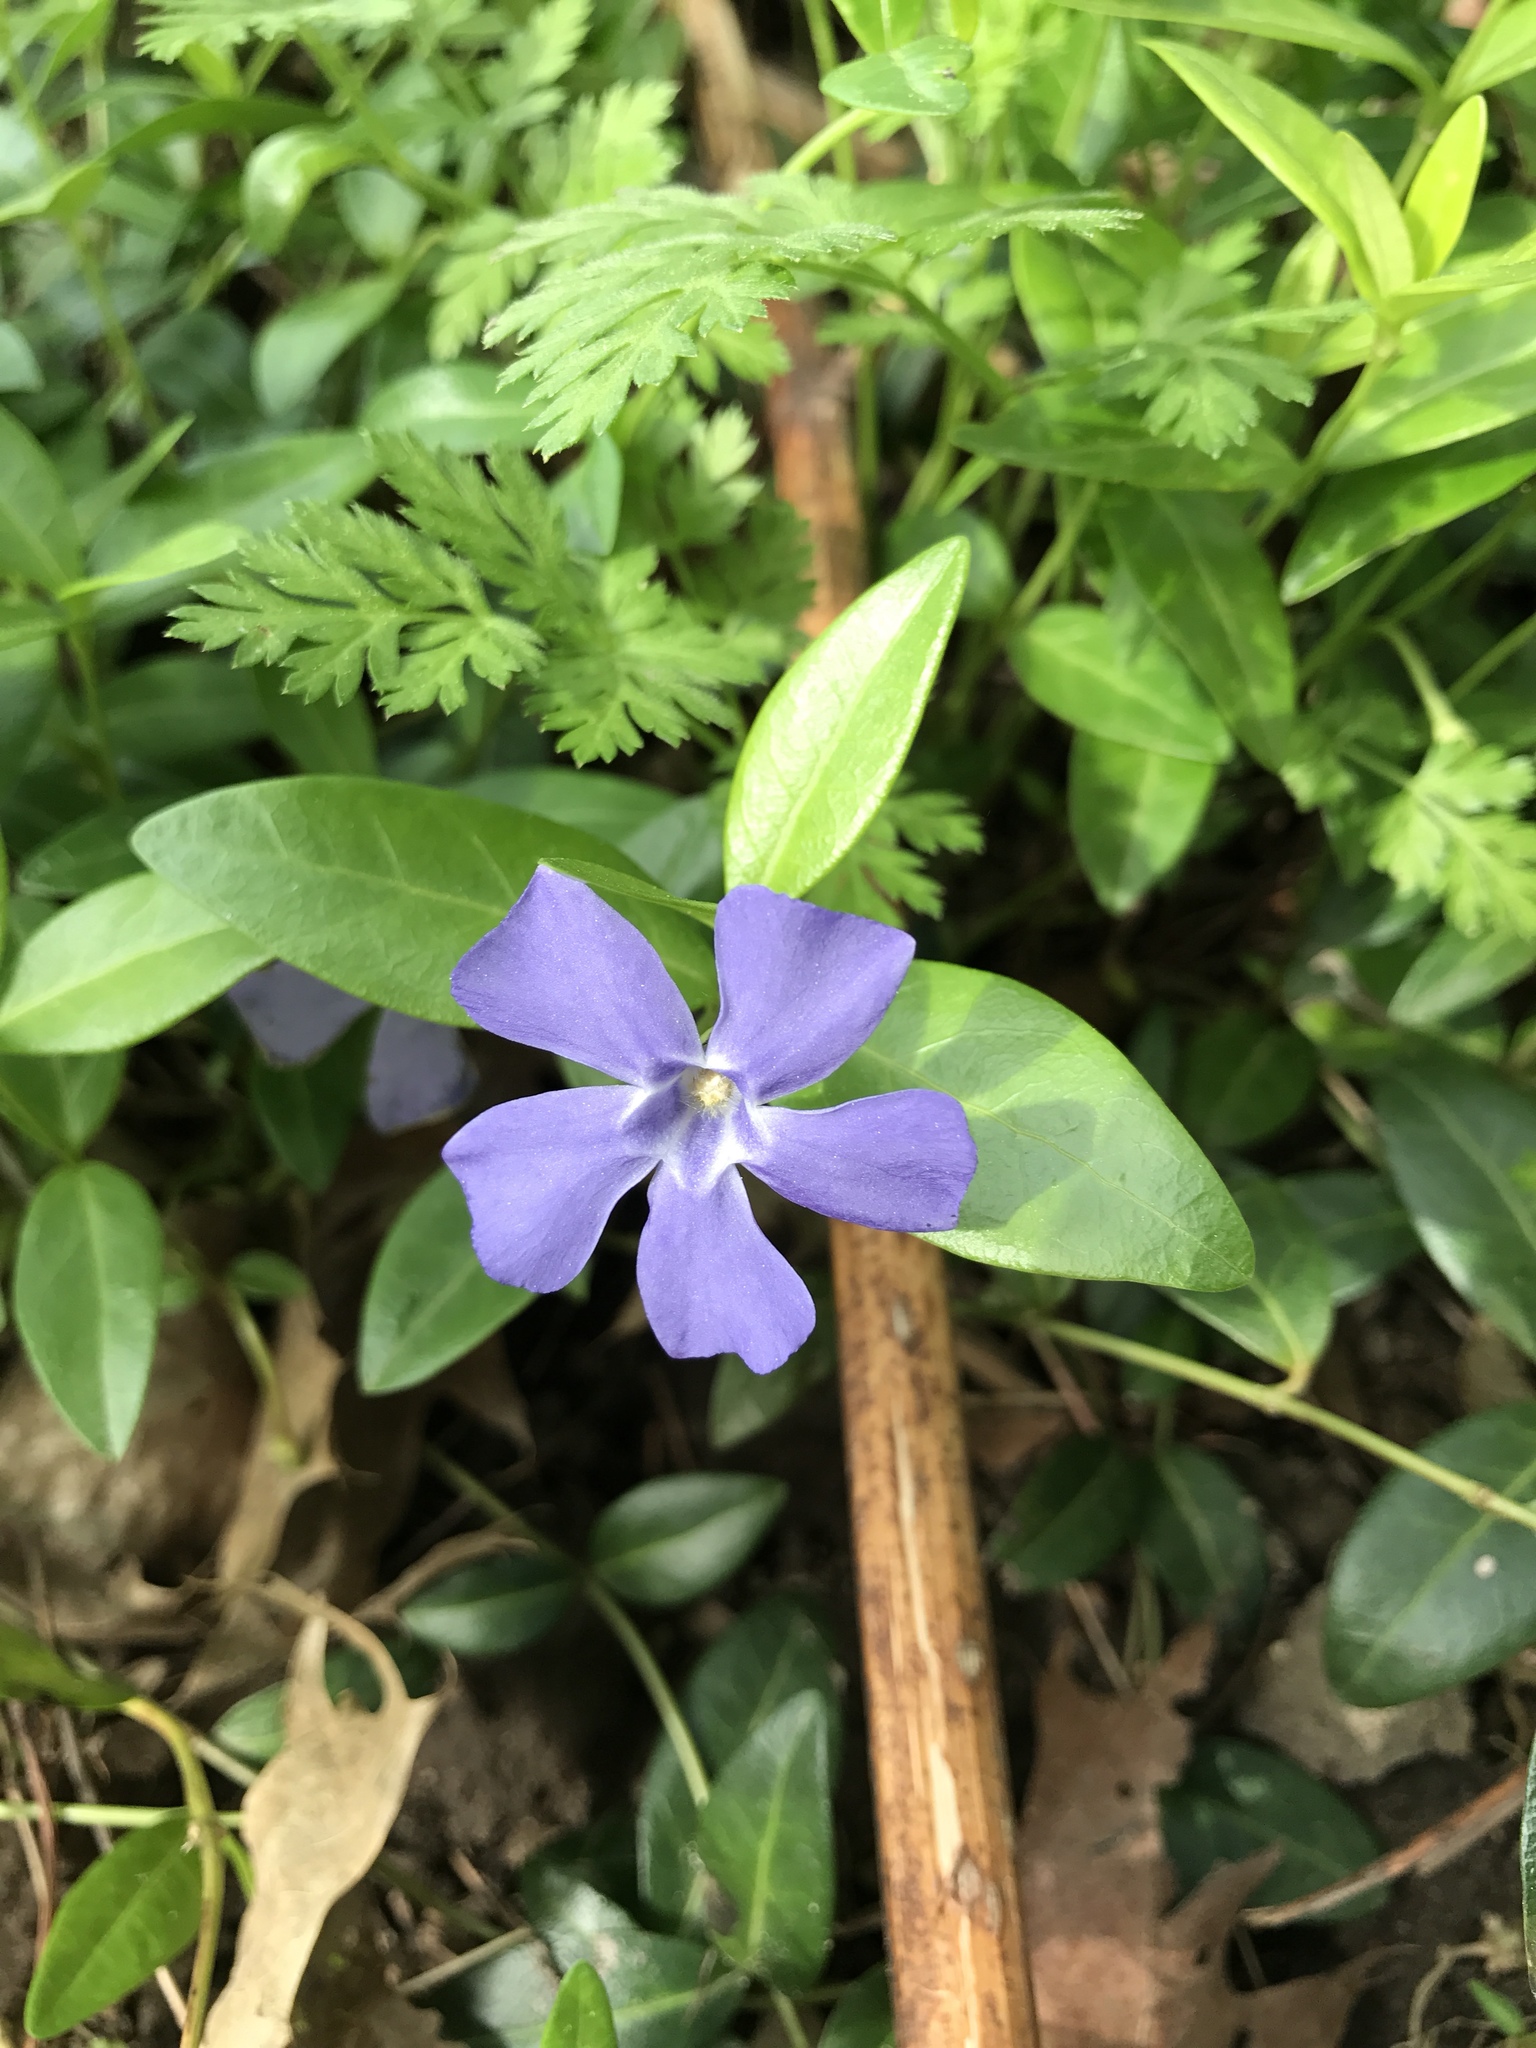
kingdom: Plantae
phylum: Tracheophyta
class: Magnoliopsida
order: Gentianales
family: Apocynaceae
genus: Vinca
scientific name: Vinca minor
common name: Lesser periwinkle
